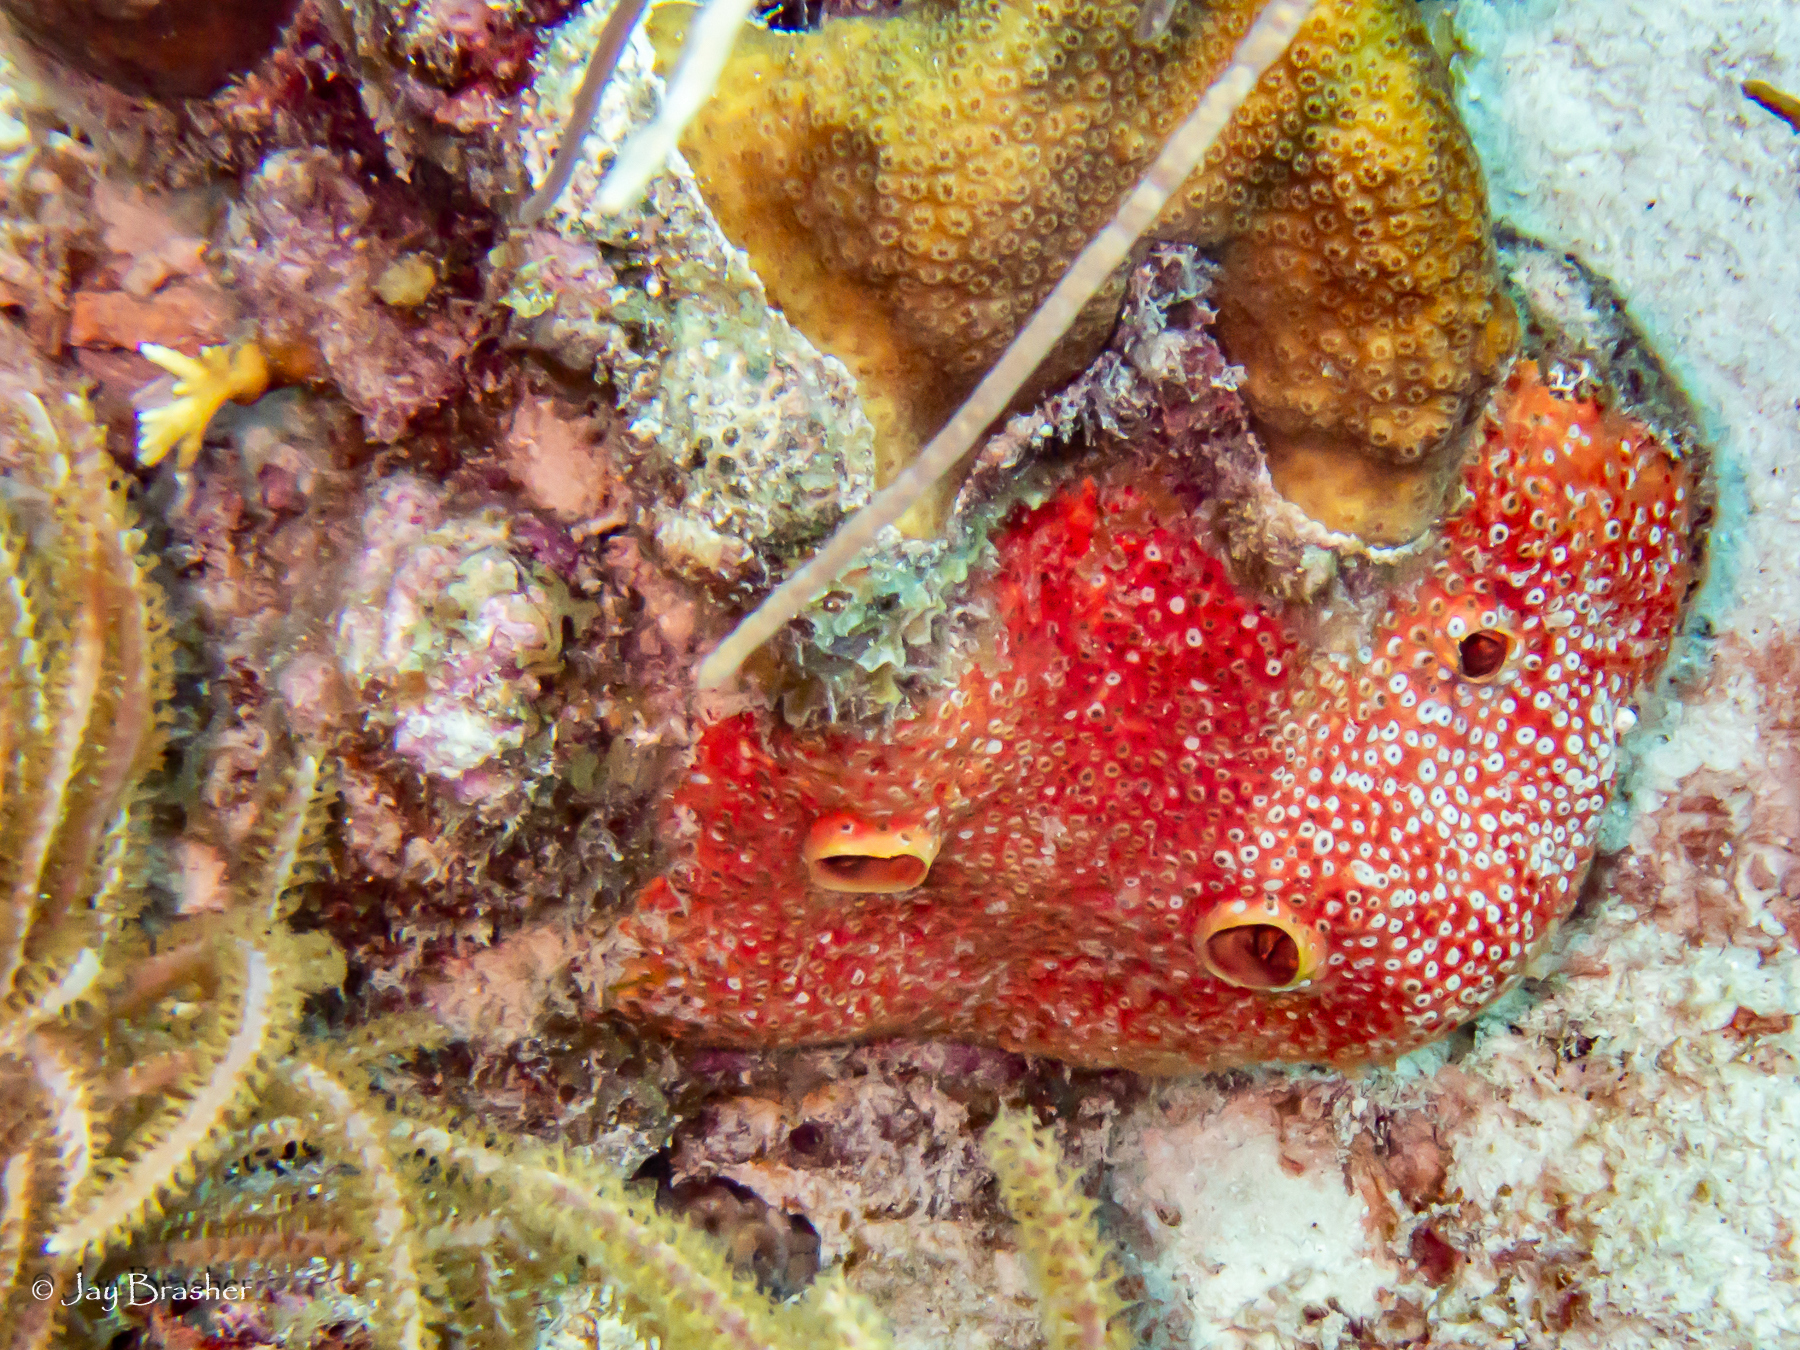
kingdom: Animalia
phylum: Porifera
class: Demospongiae
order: Clionaida
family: Clionaidae
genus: Cliothosa
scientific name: Cliothosa delitrix
